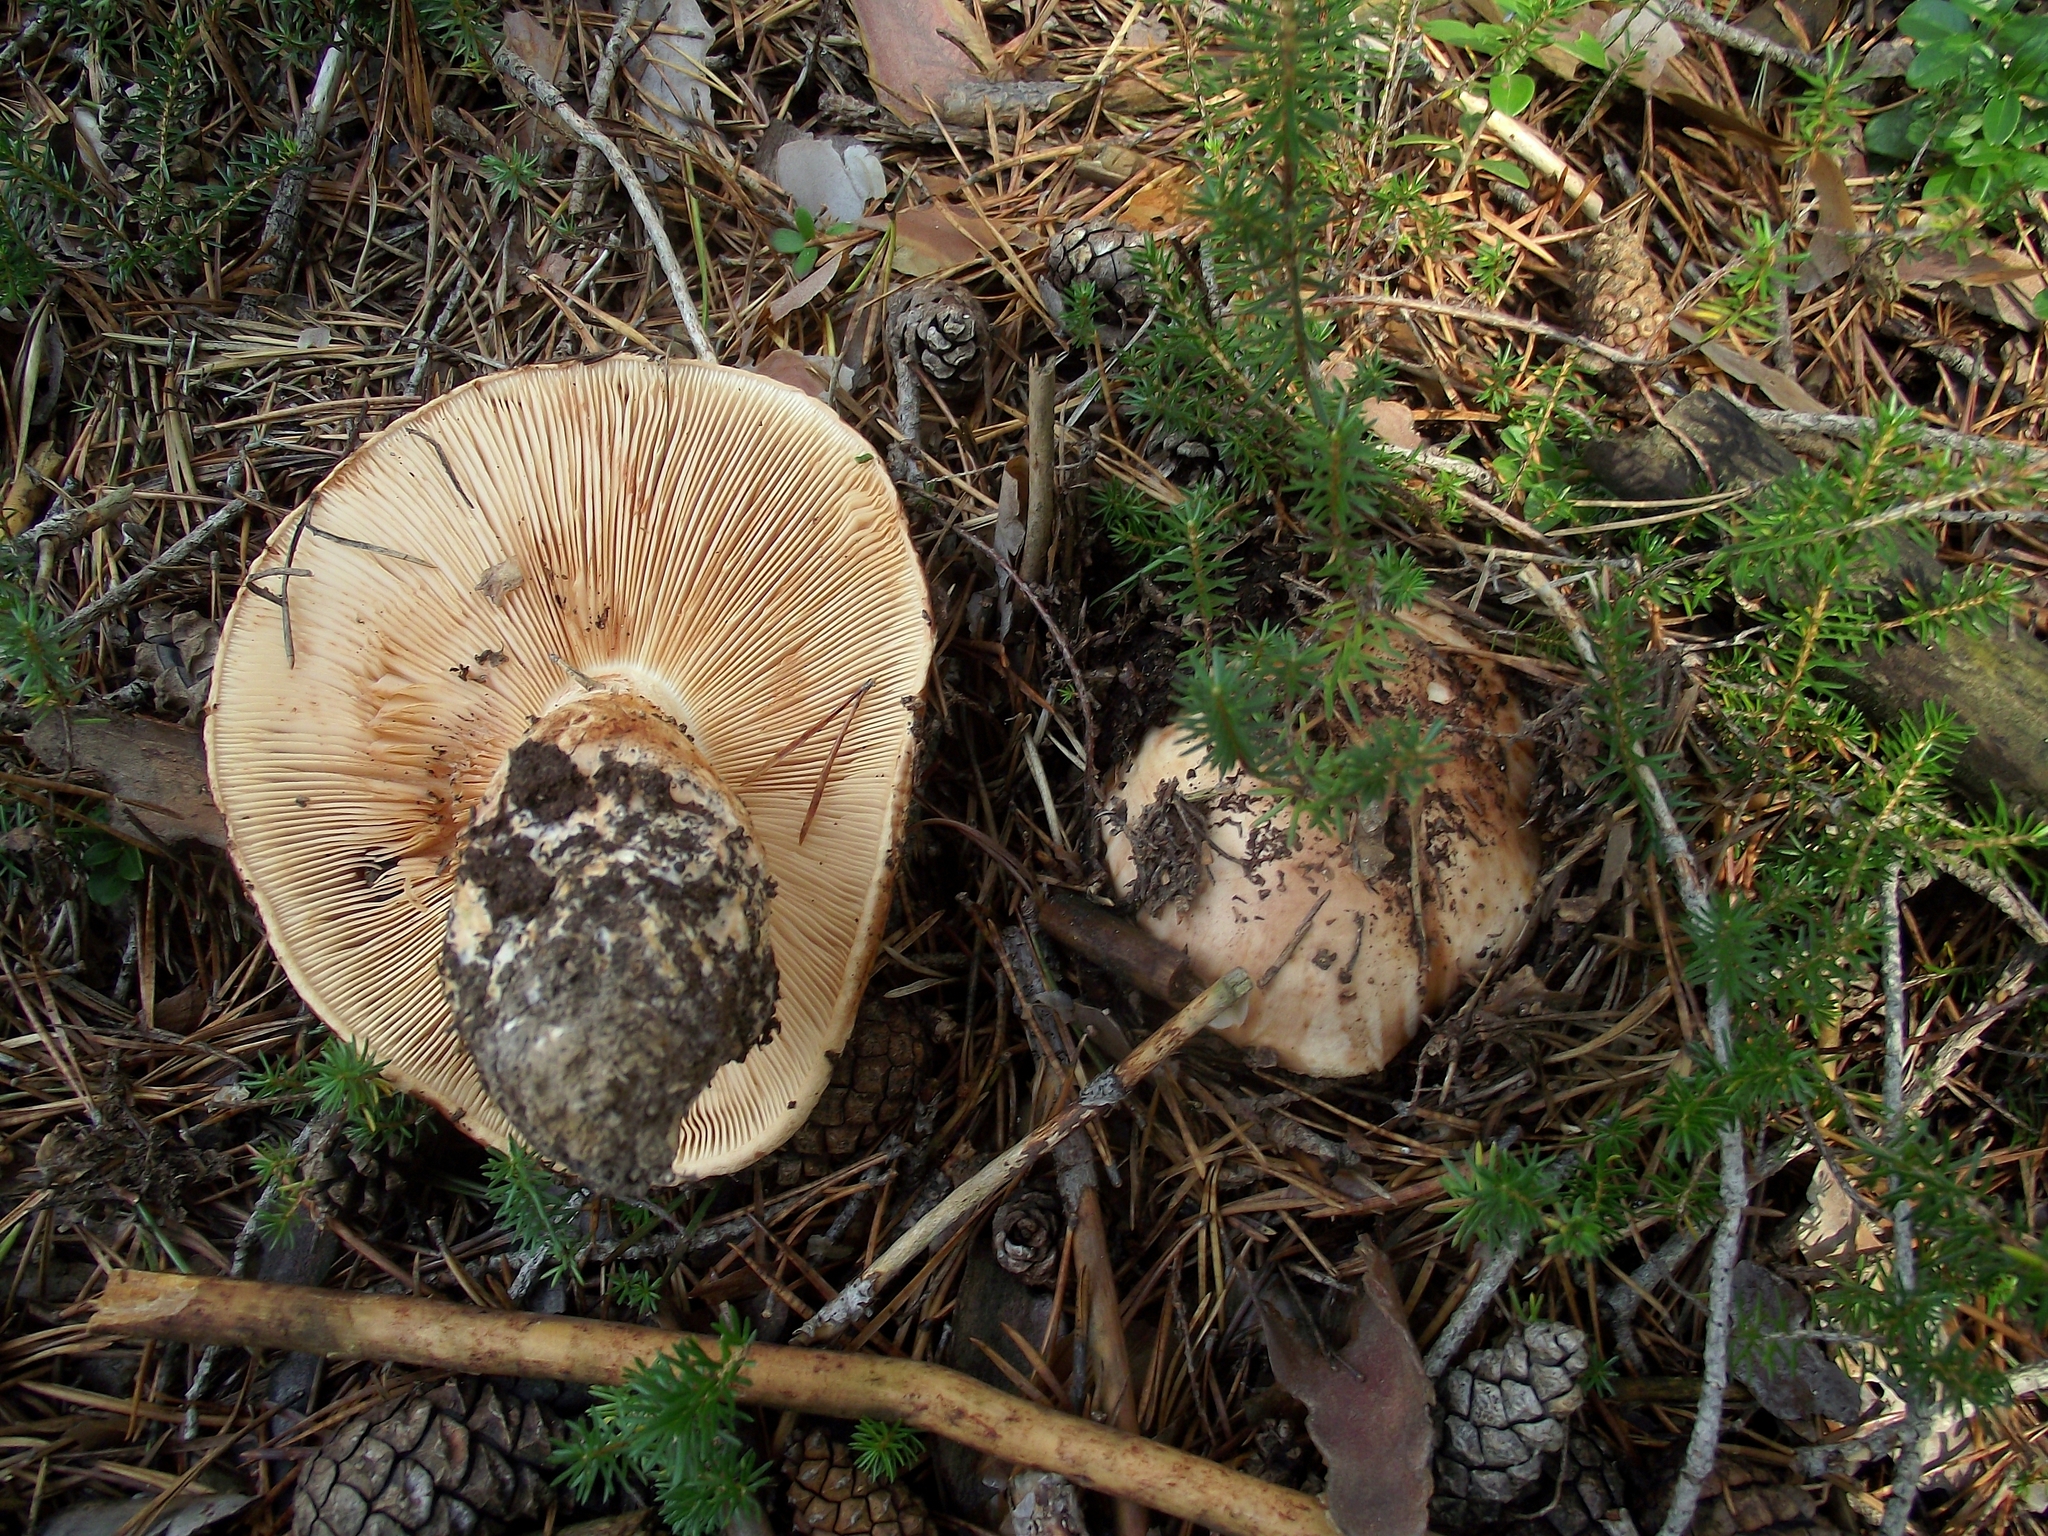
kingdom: Fungi
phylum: Basidiomycota
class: Agaricomycetes
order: Agaricales
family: Tricholomataceae
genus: Tricholoma
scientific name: Tricholoma colossus
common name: Giant knight
